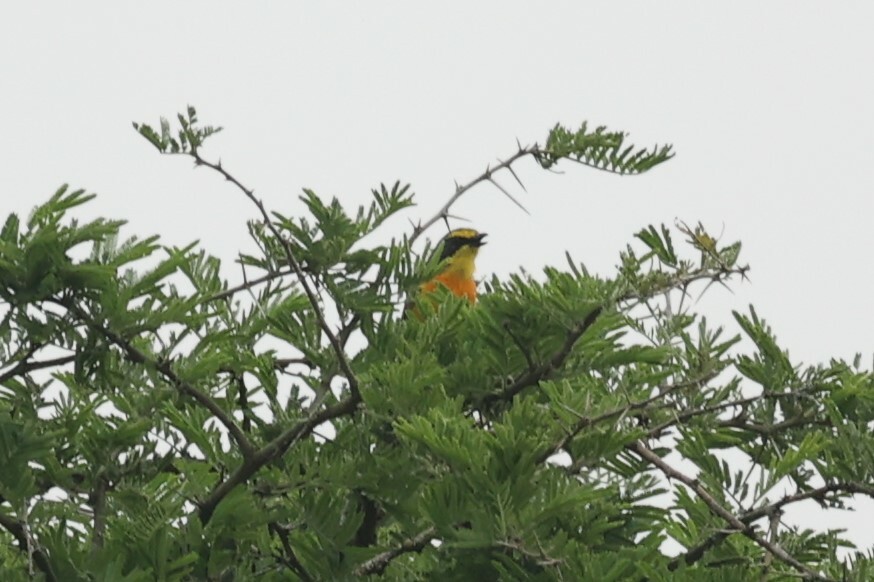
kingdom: Animalia
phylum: Chordata
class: Aves
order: Passeriformes
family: Malaconotidae
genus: Chlorophoneus
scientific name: Chlorophoneus sulfureopectus
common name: Orange-breasted bushshrike
